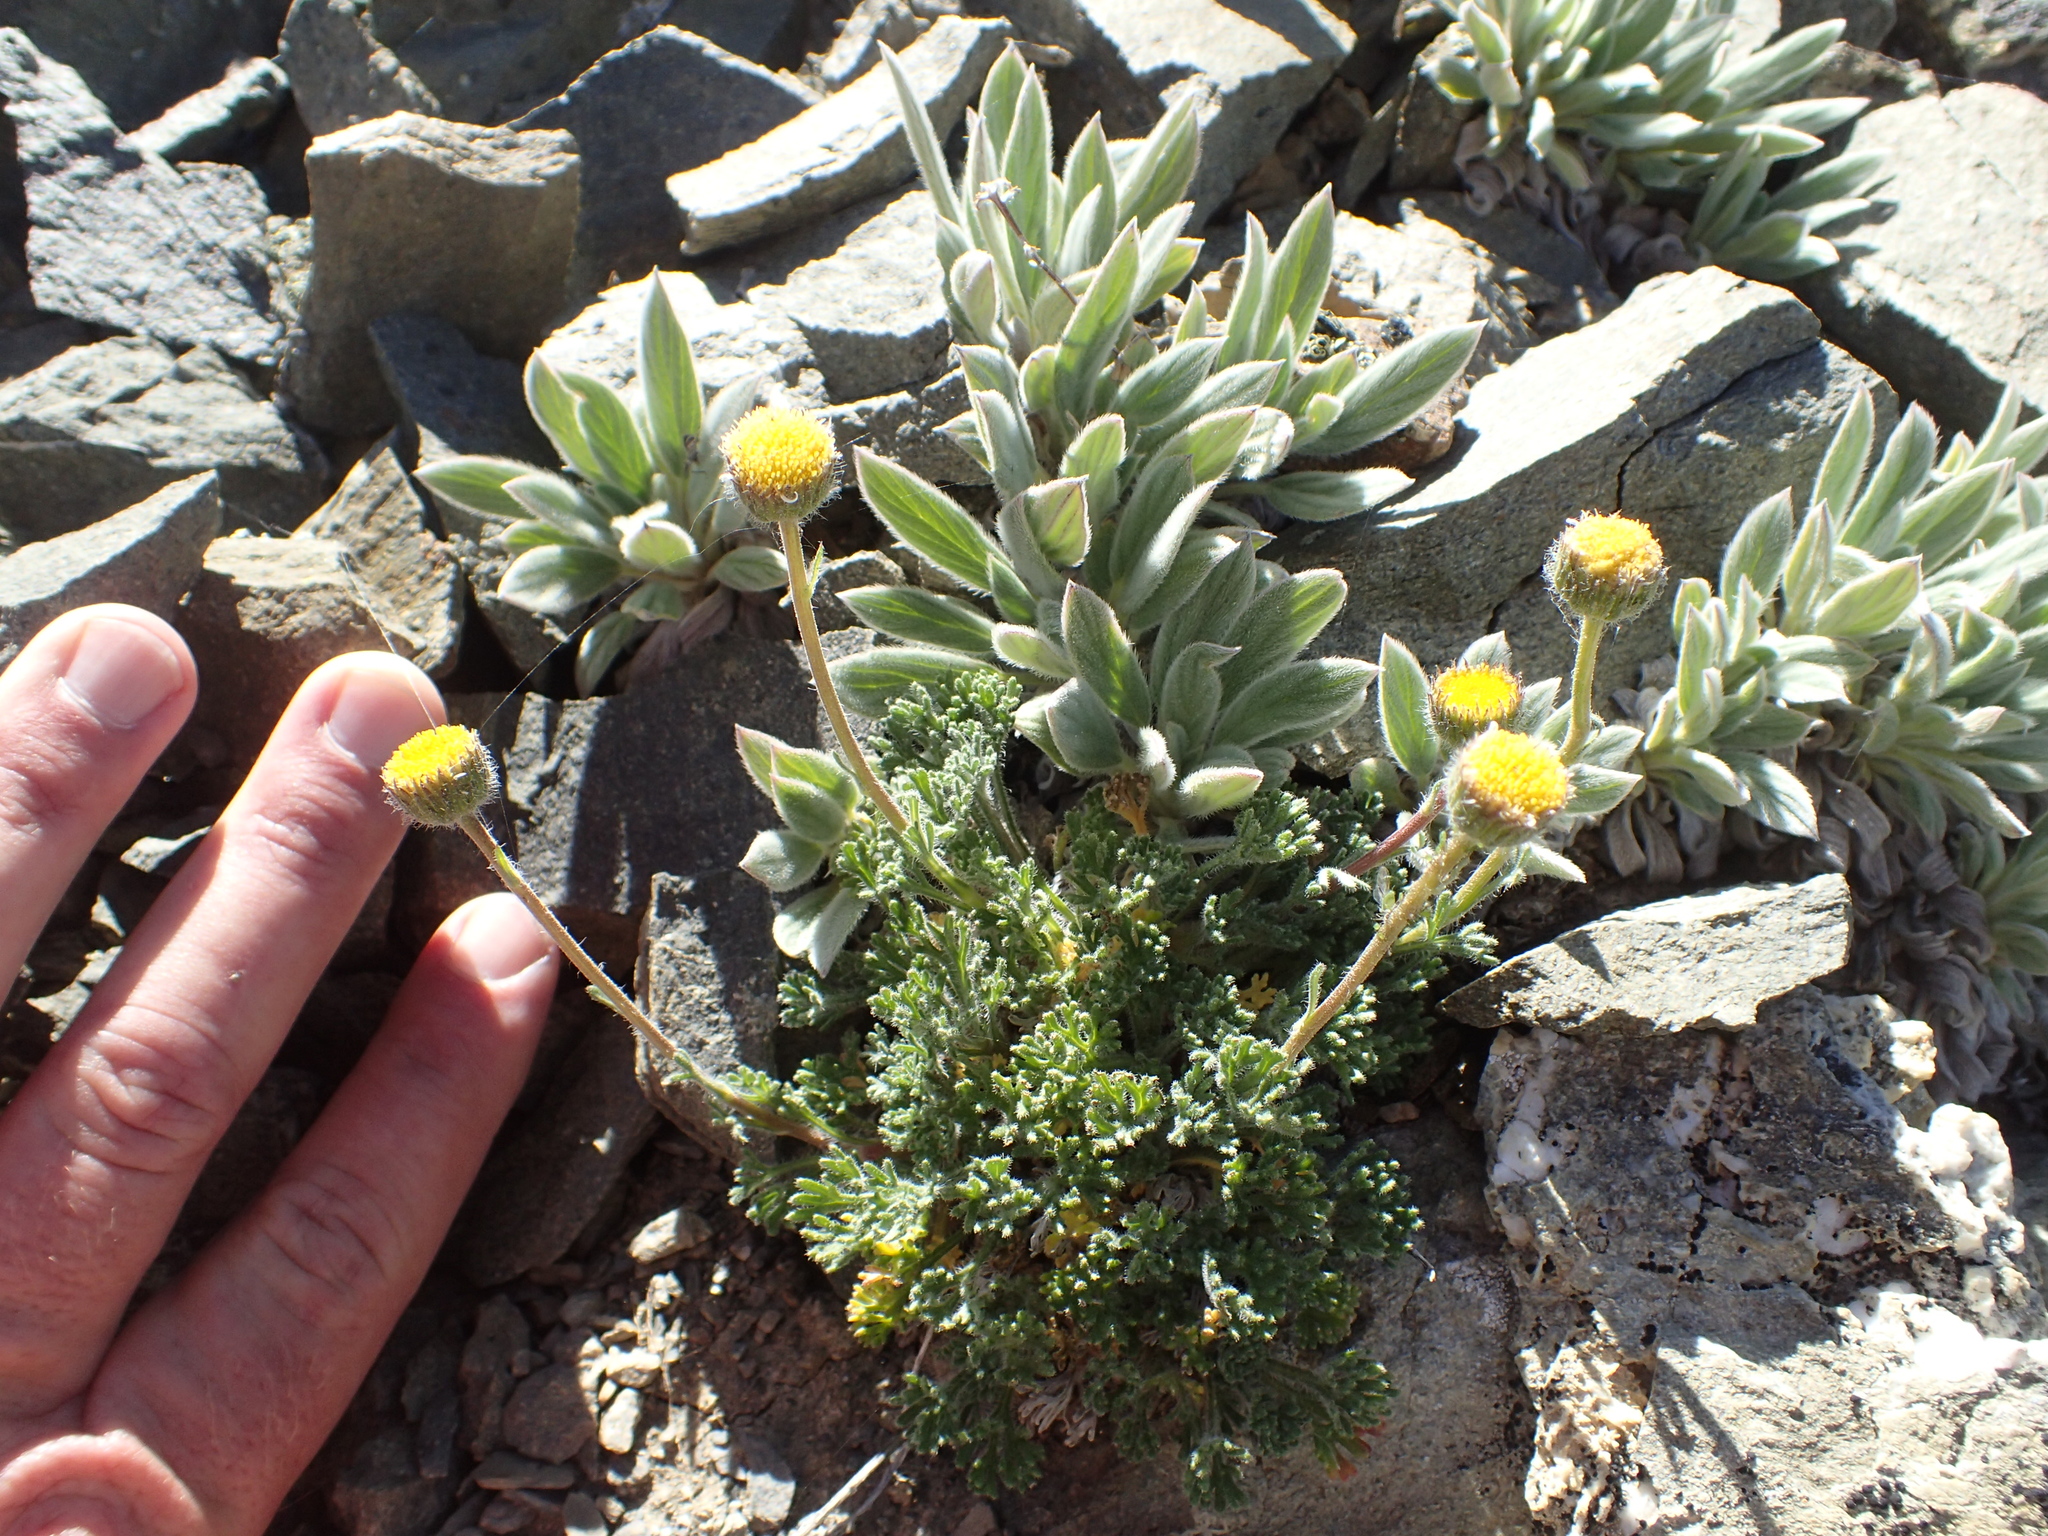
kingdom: Plantae
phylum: Tracheophyta
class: Magnoliopsida
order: Asterales
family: Asteraceae
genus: Erigeron
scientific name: Erigeron compositus
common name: Dwarf mountain fleabane
